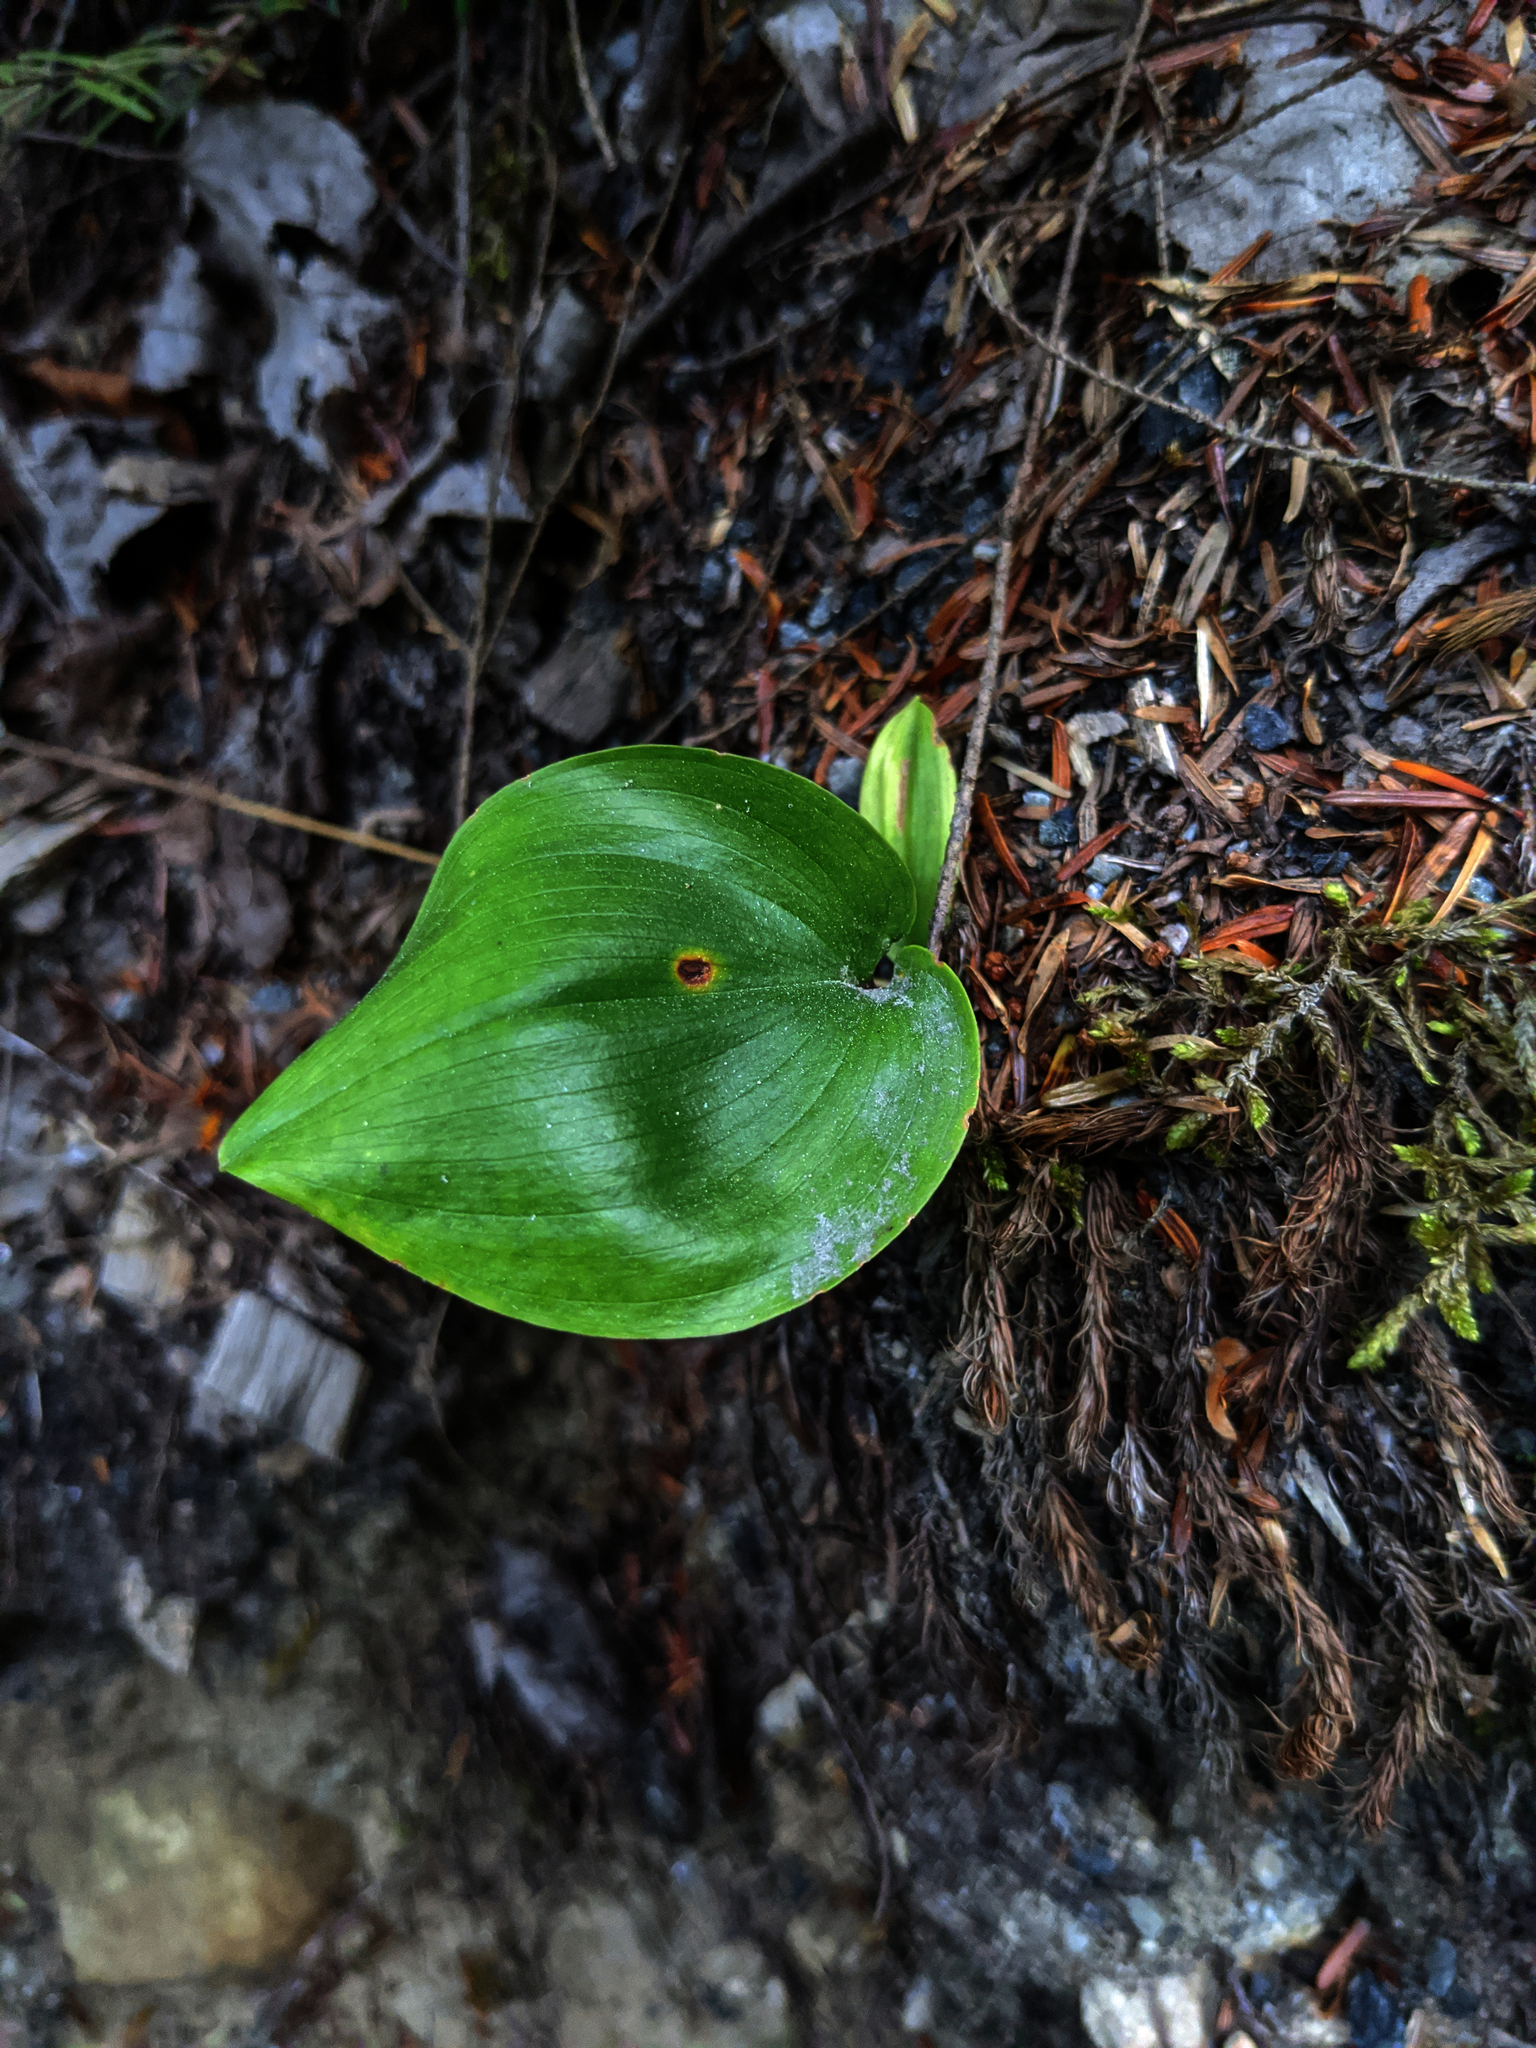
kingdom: Plantae
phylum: Tracheophyta
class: Liliopsida
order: Asparagales
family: Asparagaceae
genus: Maianthemum
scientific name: Maianthemum canadense
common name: False lily-of-the-valley
